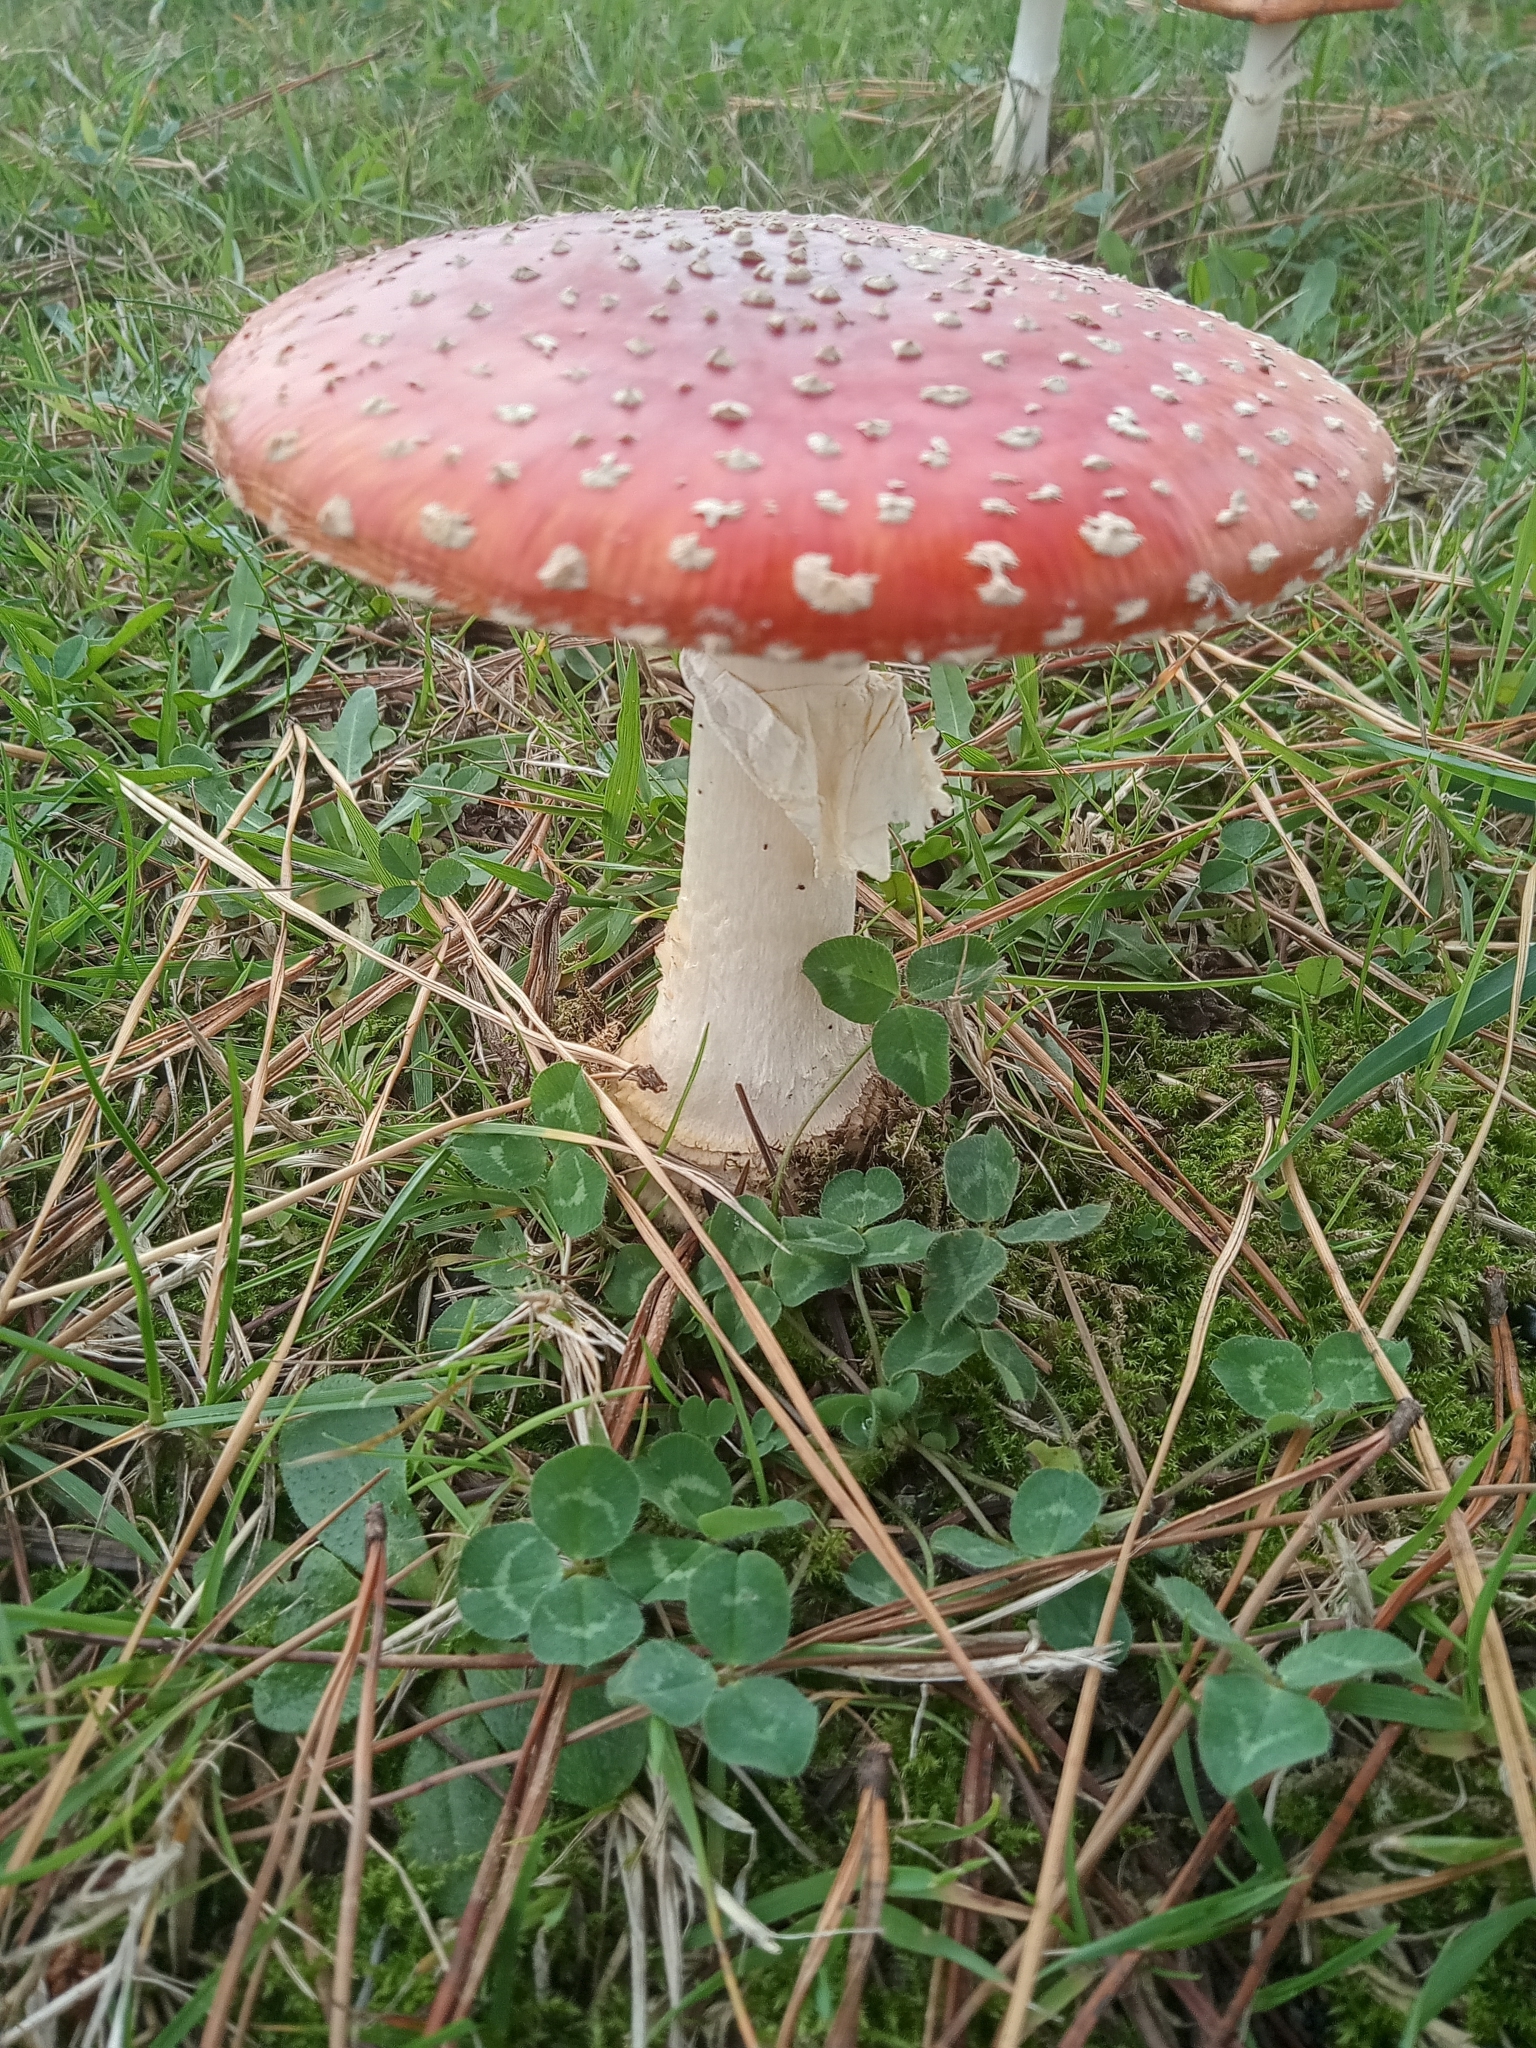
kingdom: Fungi
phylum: Basidiomycota
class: Agaricomycetes
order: Agaricales
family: Amanitaceae
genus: Amanita
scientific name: Amanita muscaria
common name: Fly agaric
